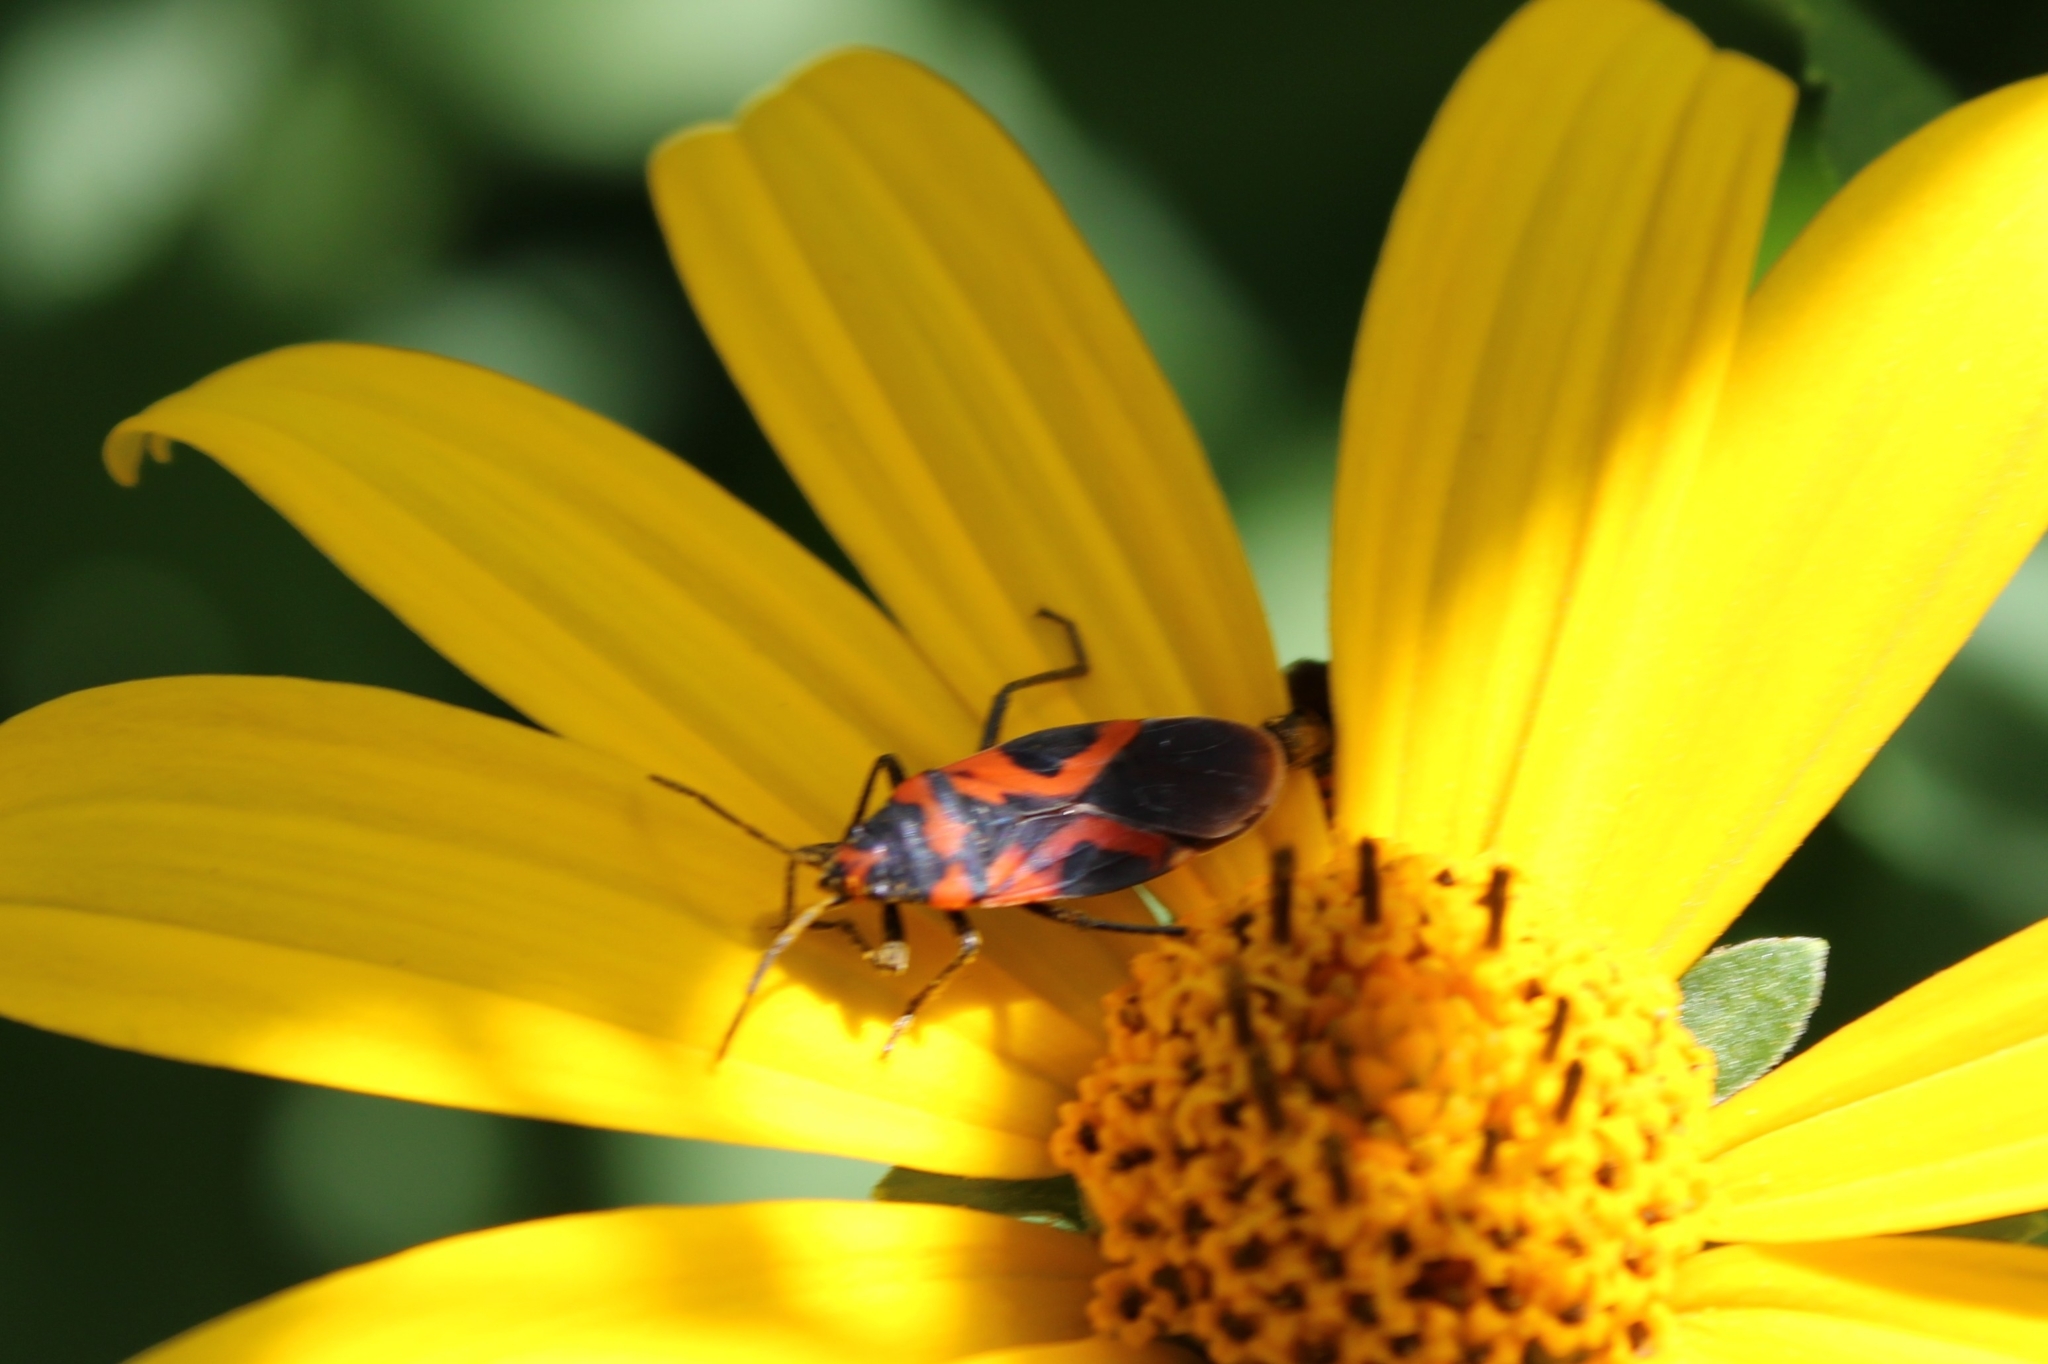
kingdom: Animalia
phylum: Arthropoda
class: Insecta
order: Hemiptera
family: Lygaeidae
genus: Lygaeus
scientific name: Lygaeus turcicus
